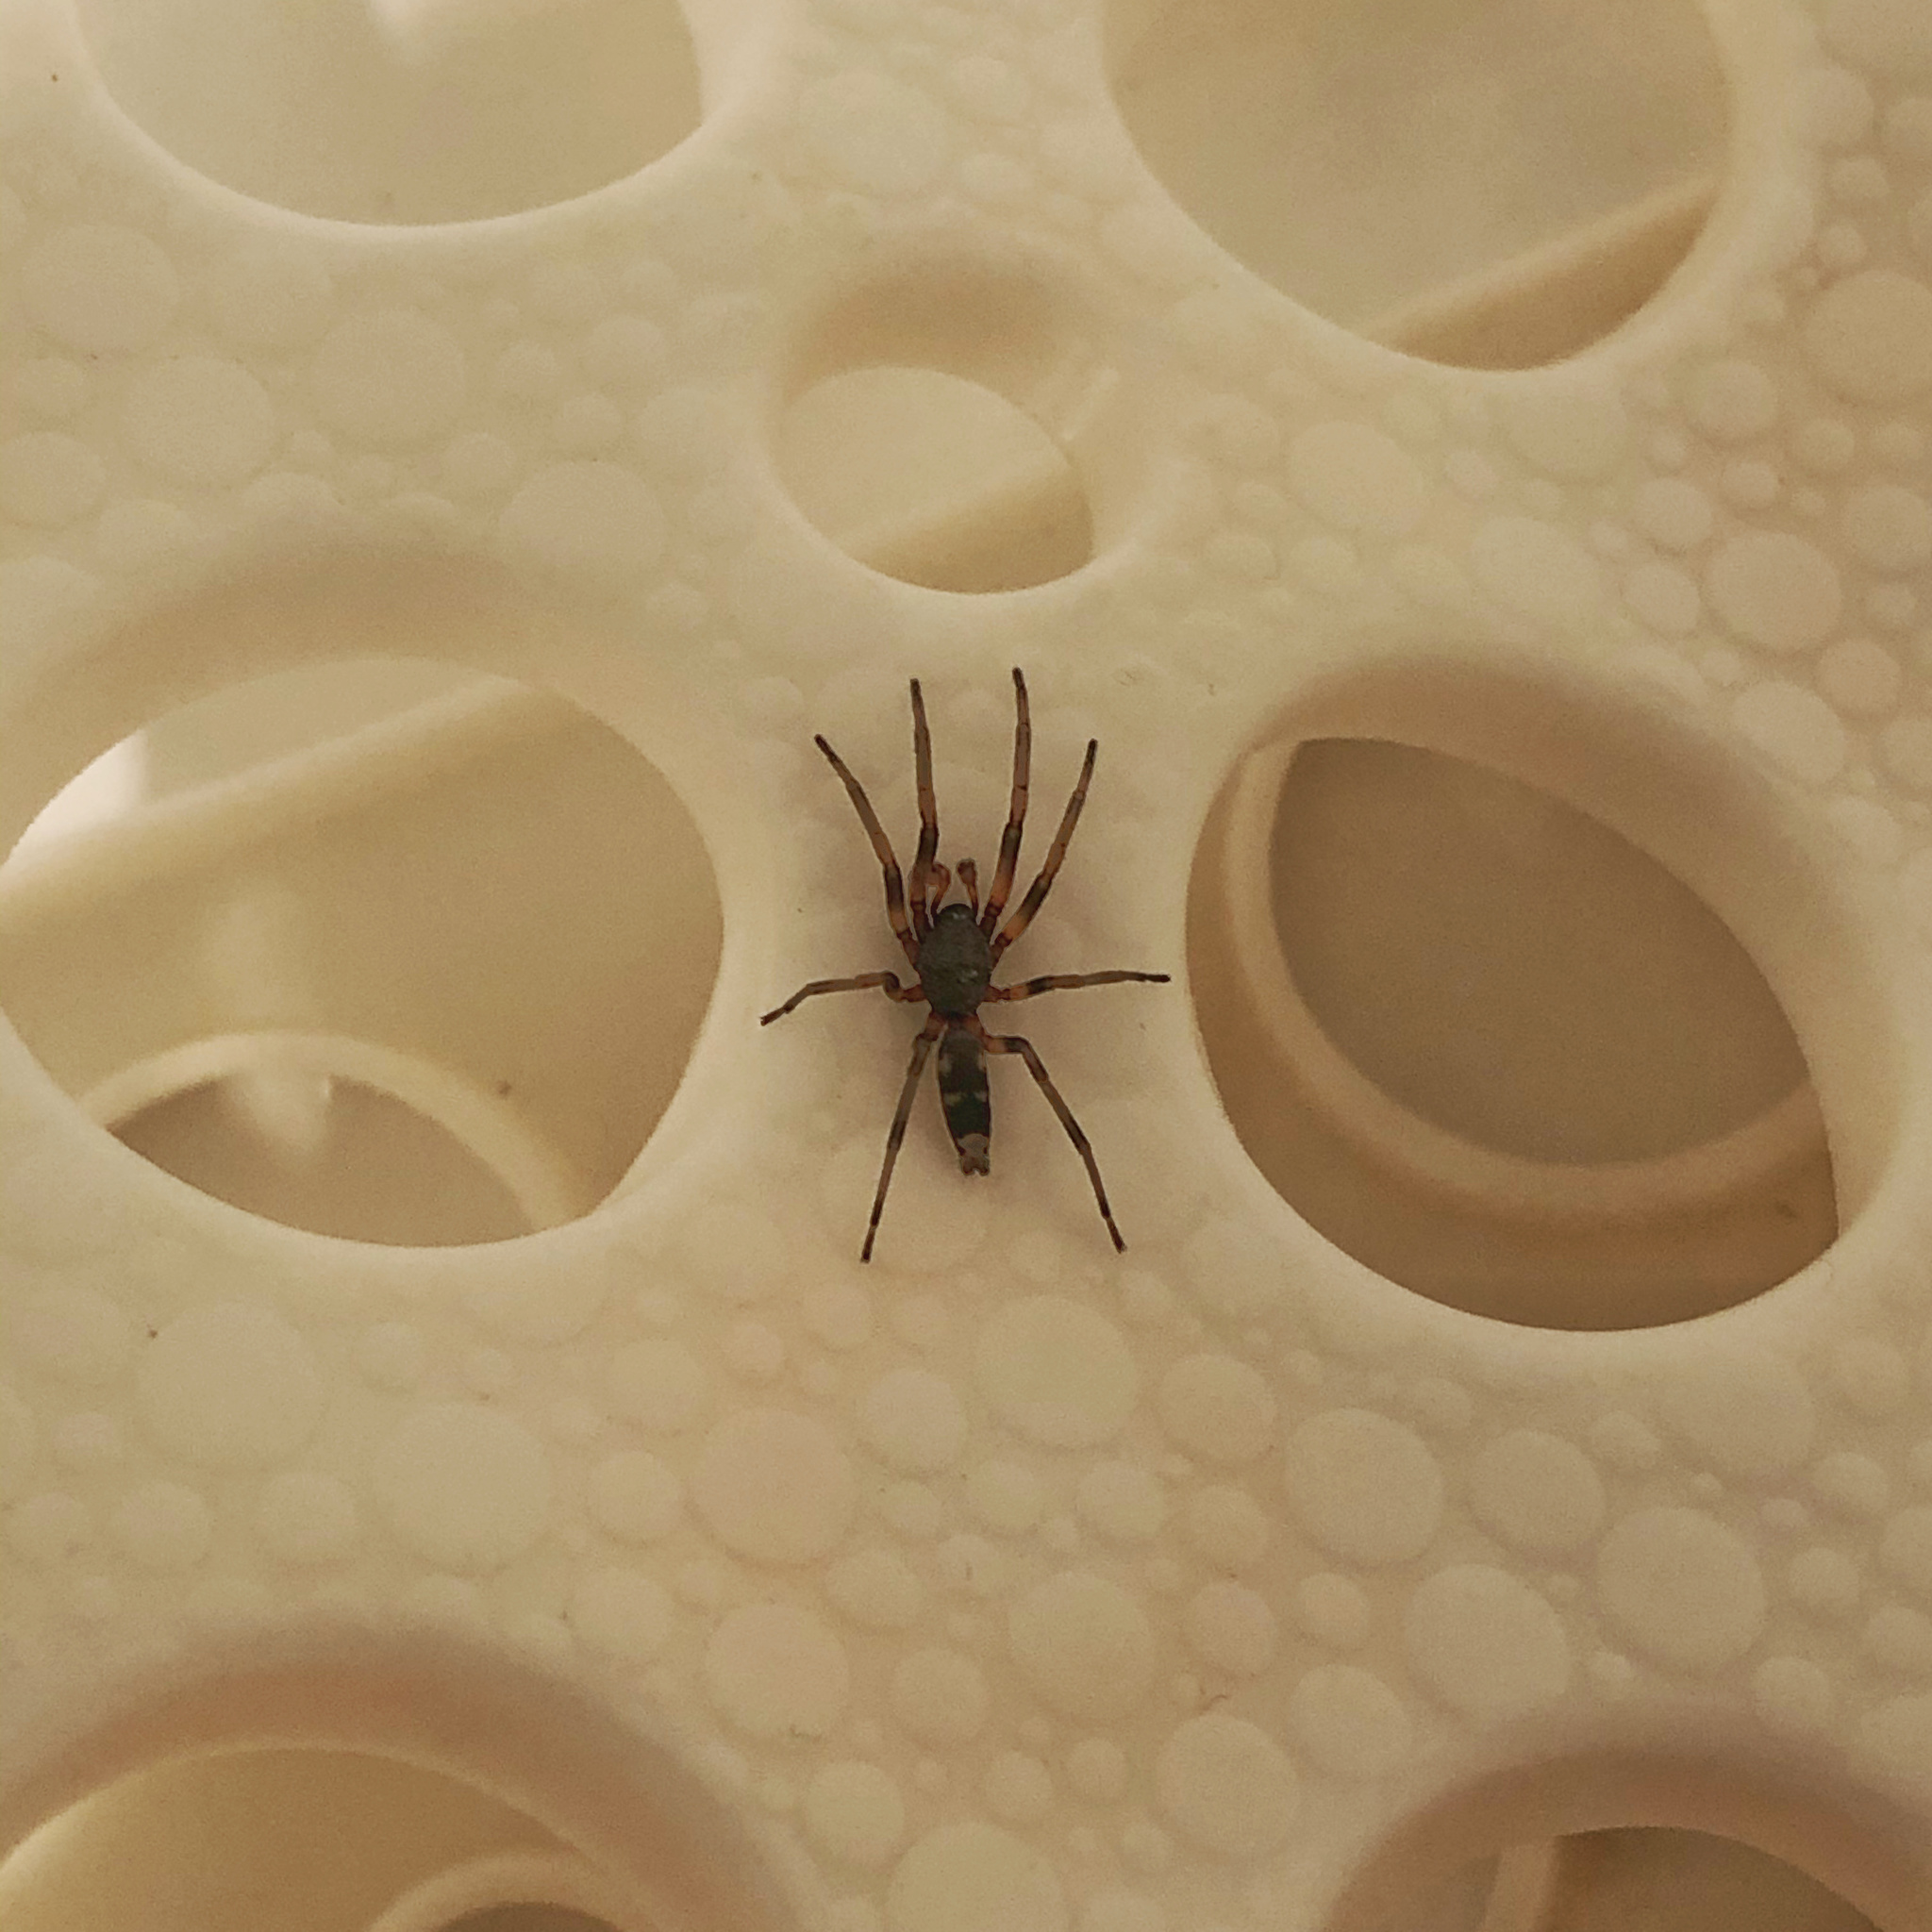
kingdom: Animalia
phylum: Arthropoda
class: Arachnida
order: Araneae
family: Lamponidae
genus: Lampona
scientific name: Lampona cylindrata
